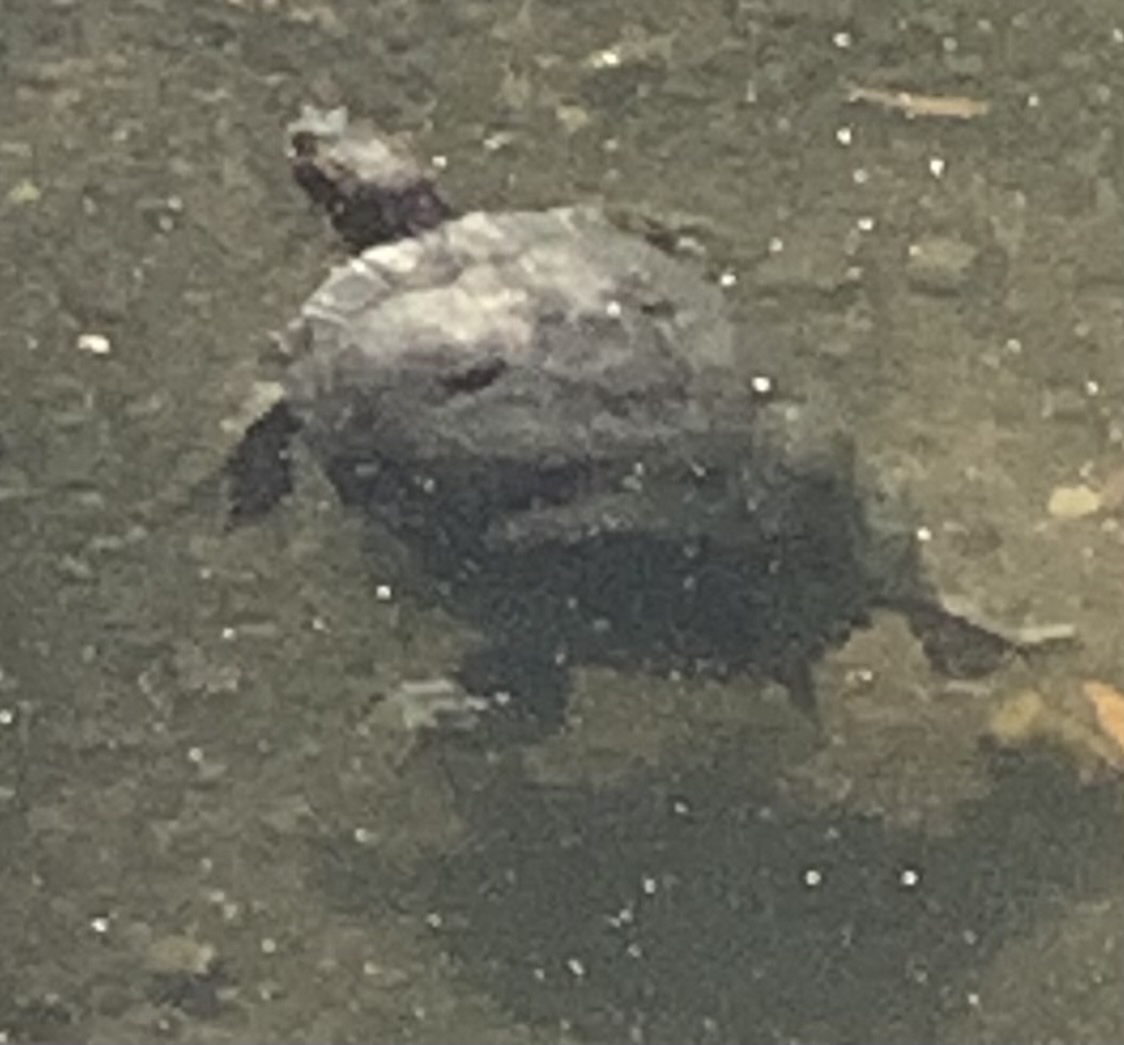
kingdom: Animalia
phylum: Chordata
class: Testudines
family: Emydidae
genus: Trachemys
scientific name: Trachemys scripta
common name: Slider
